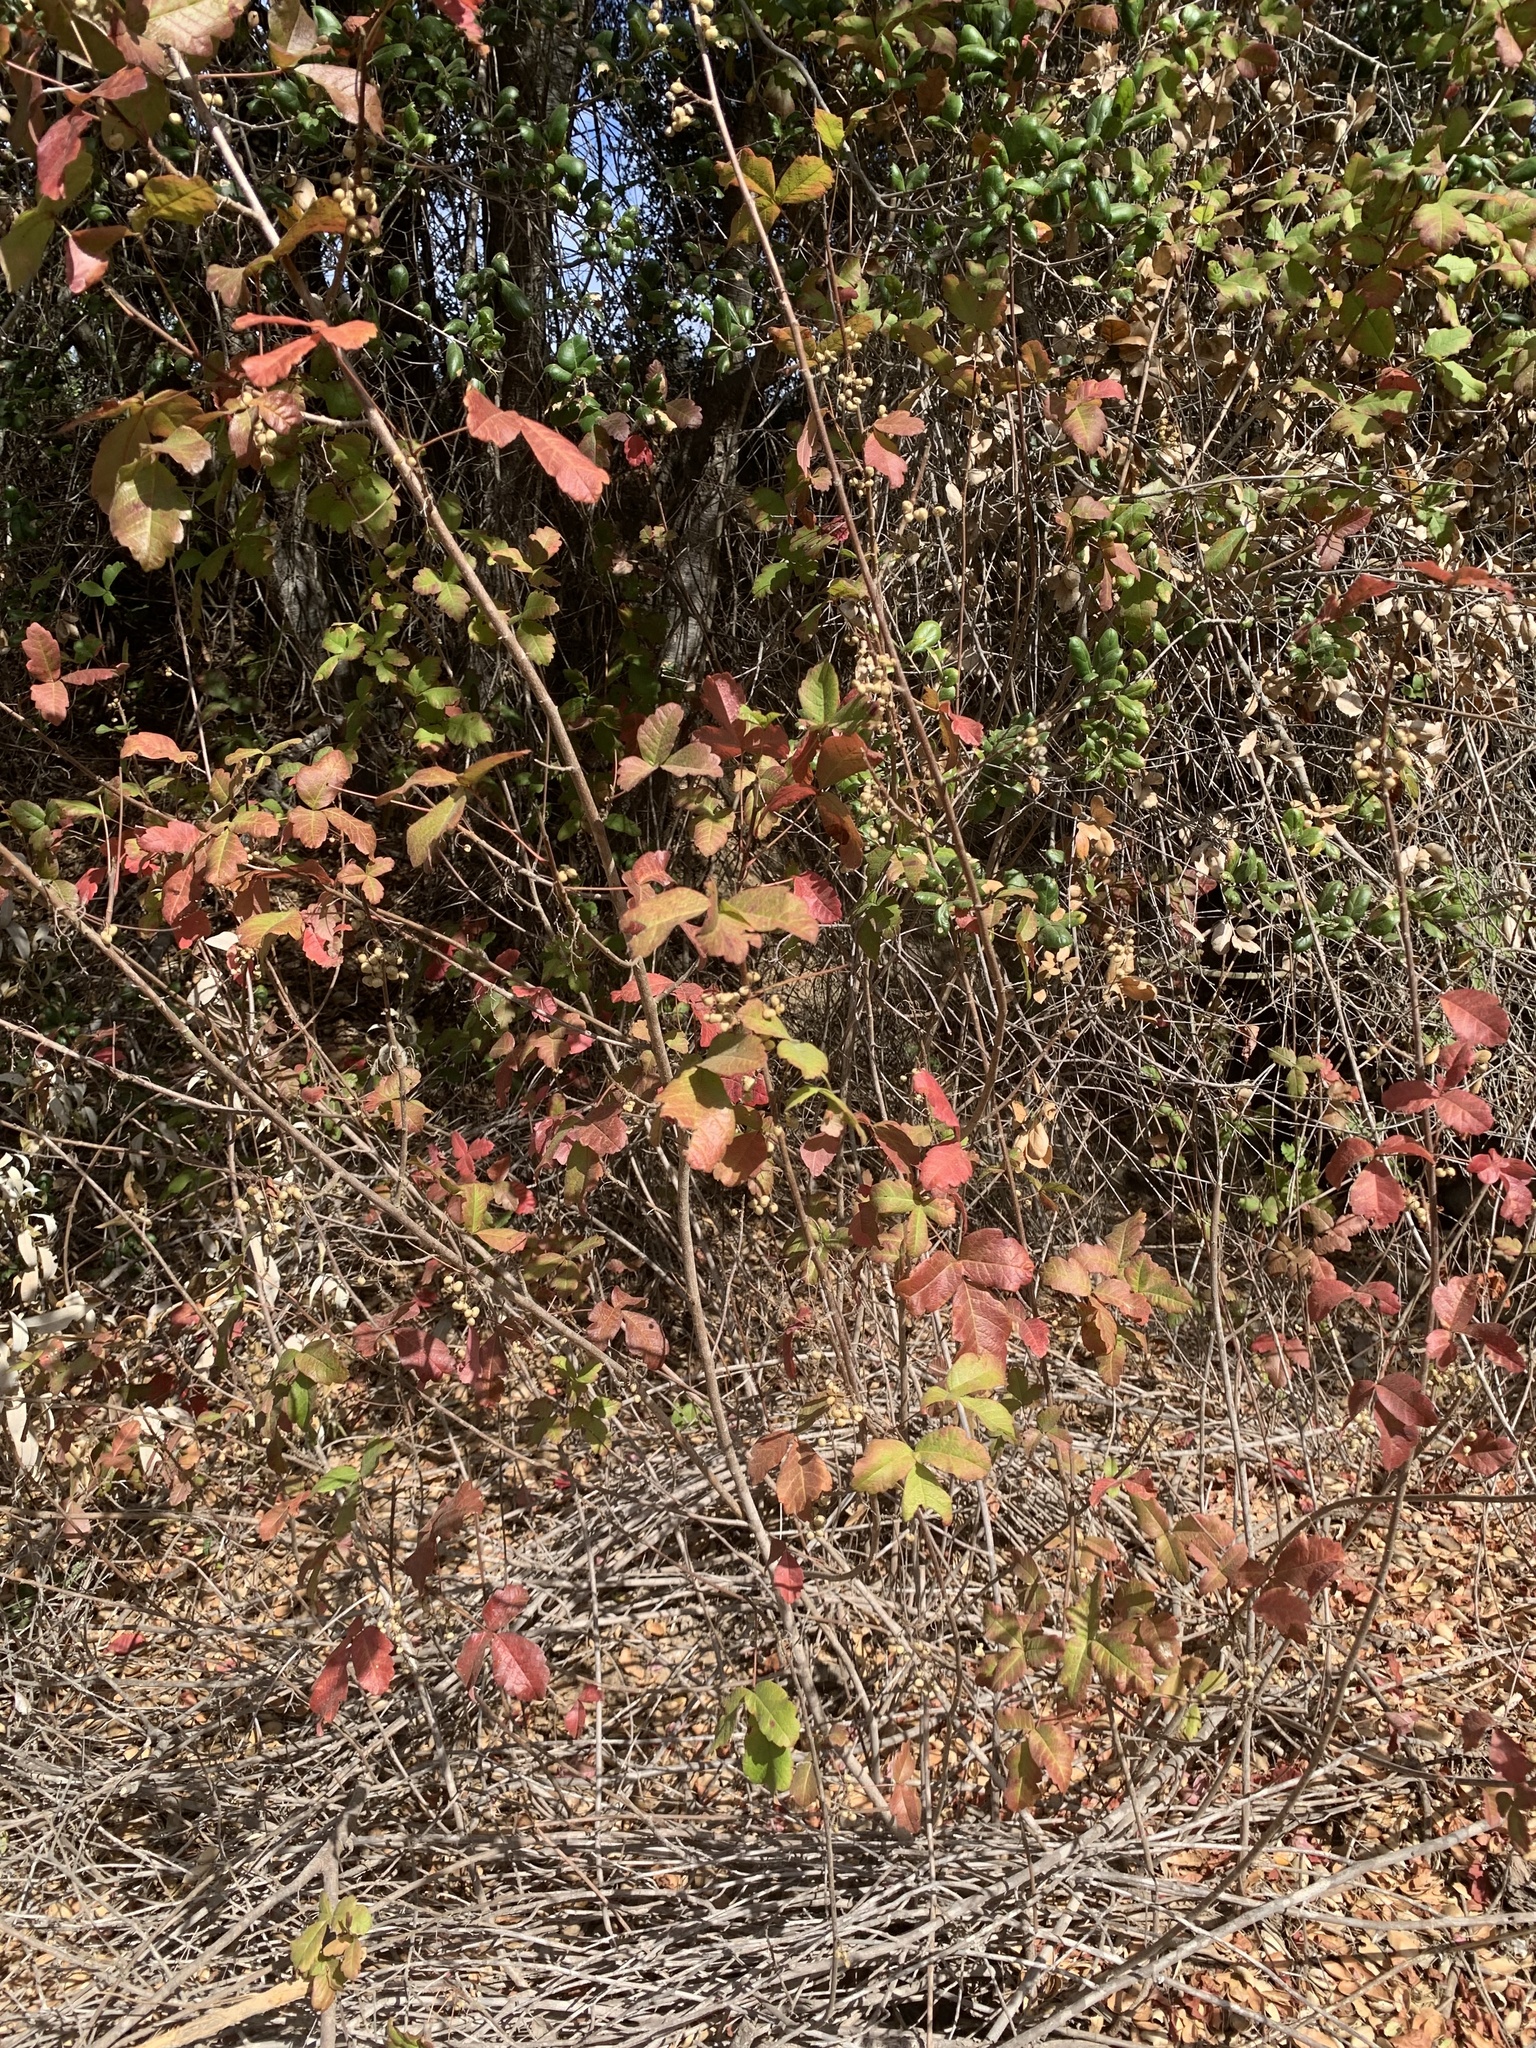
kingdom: Plantae
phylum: Tracheophyta
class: Magnoliopsida
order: Sapindales
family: Anacardiaceae
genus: Toxicodendron
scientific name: Toxicodendron diversilobum
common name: Pacific poison-oak
